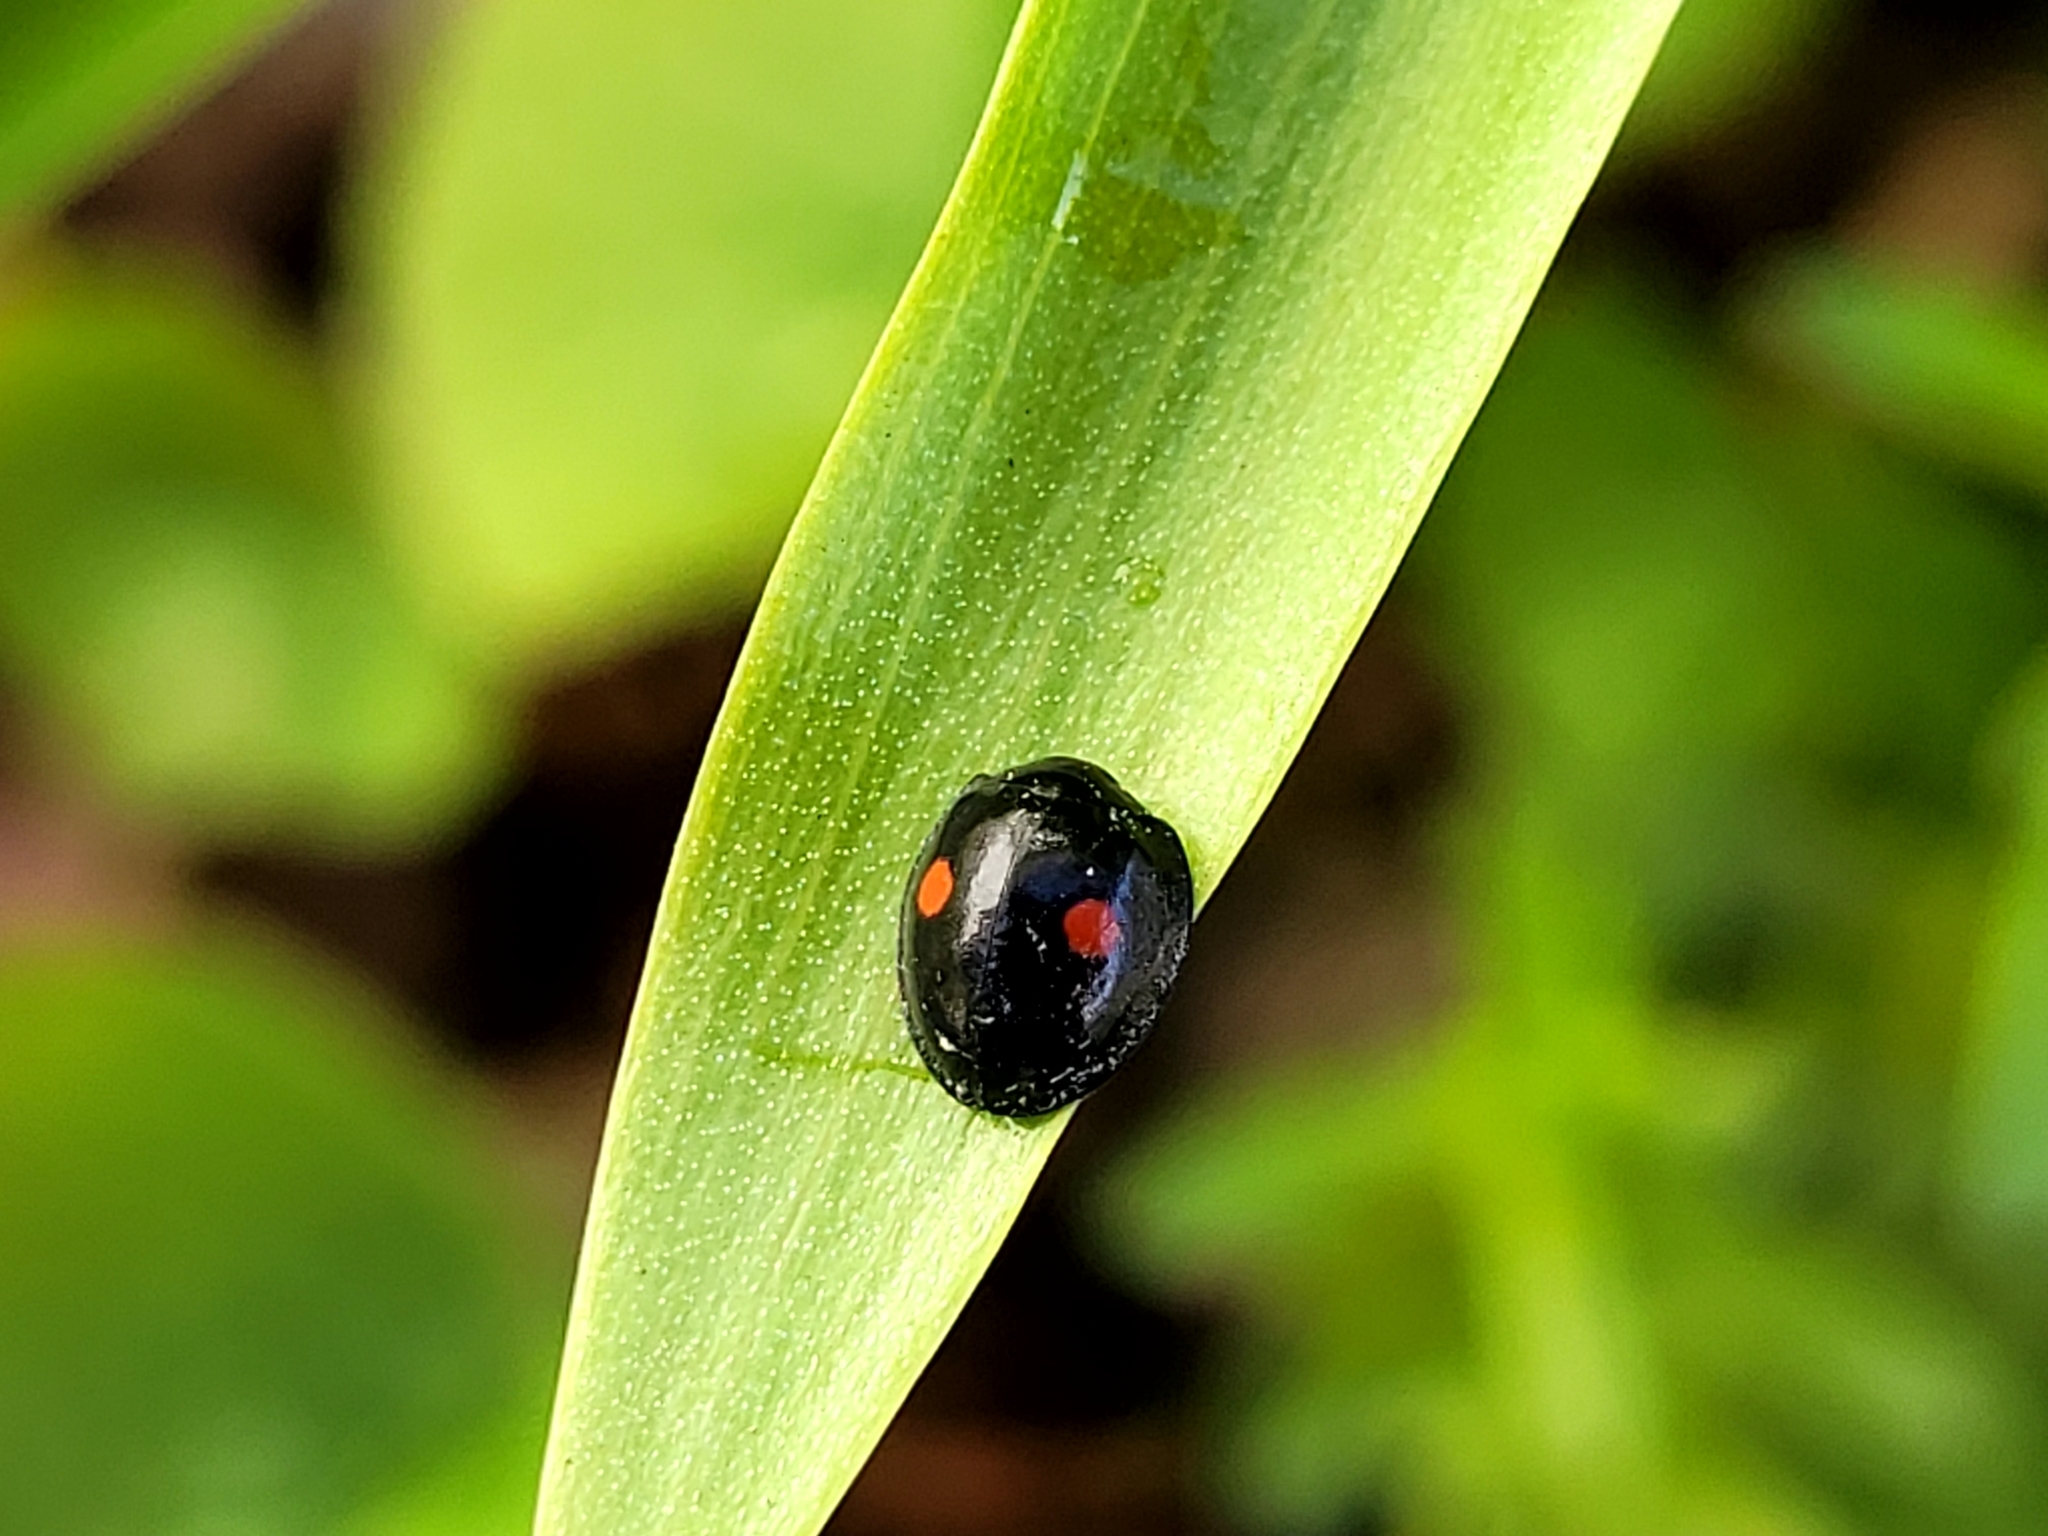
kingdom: Animalia
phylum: Arthropoda
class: Insecta
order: Coleoptera
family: Coccinellidae
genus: Chilocorus
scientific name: Chilocorus stigma
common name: Twicestabbed lady beetle
